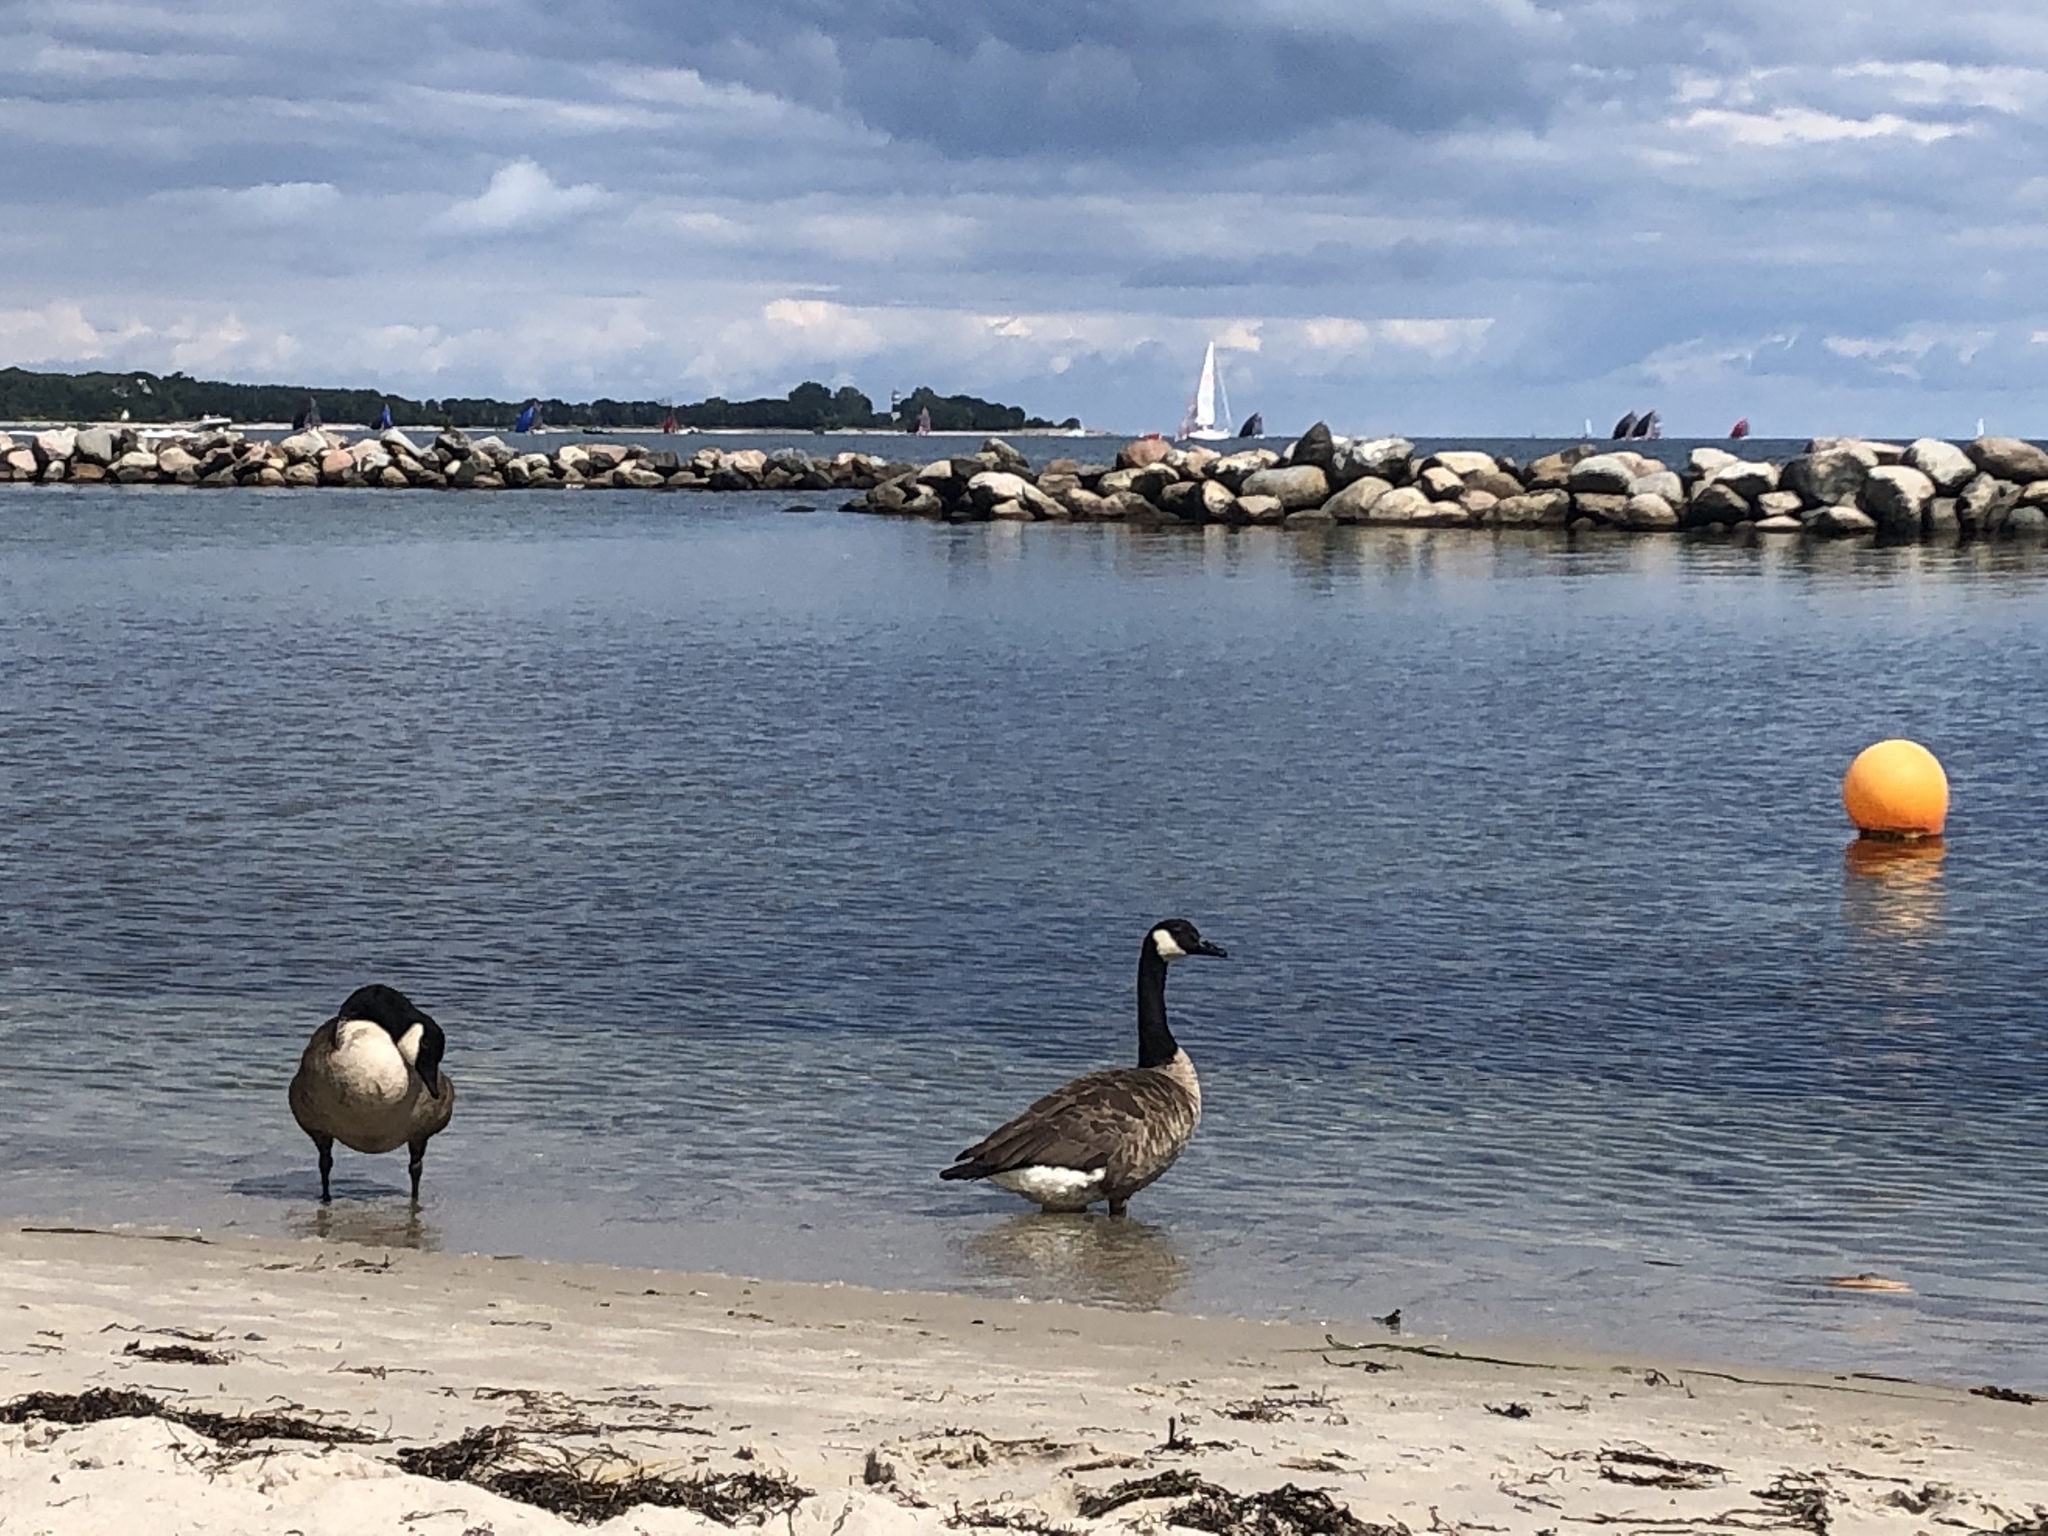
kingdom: Animalia
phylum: Chordata
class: Aves
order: Anseriformes
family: Anatidae
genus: Branta
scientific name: Branta canadensis
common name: Canada goose
